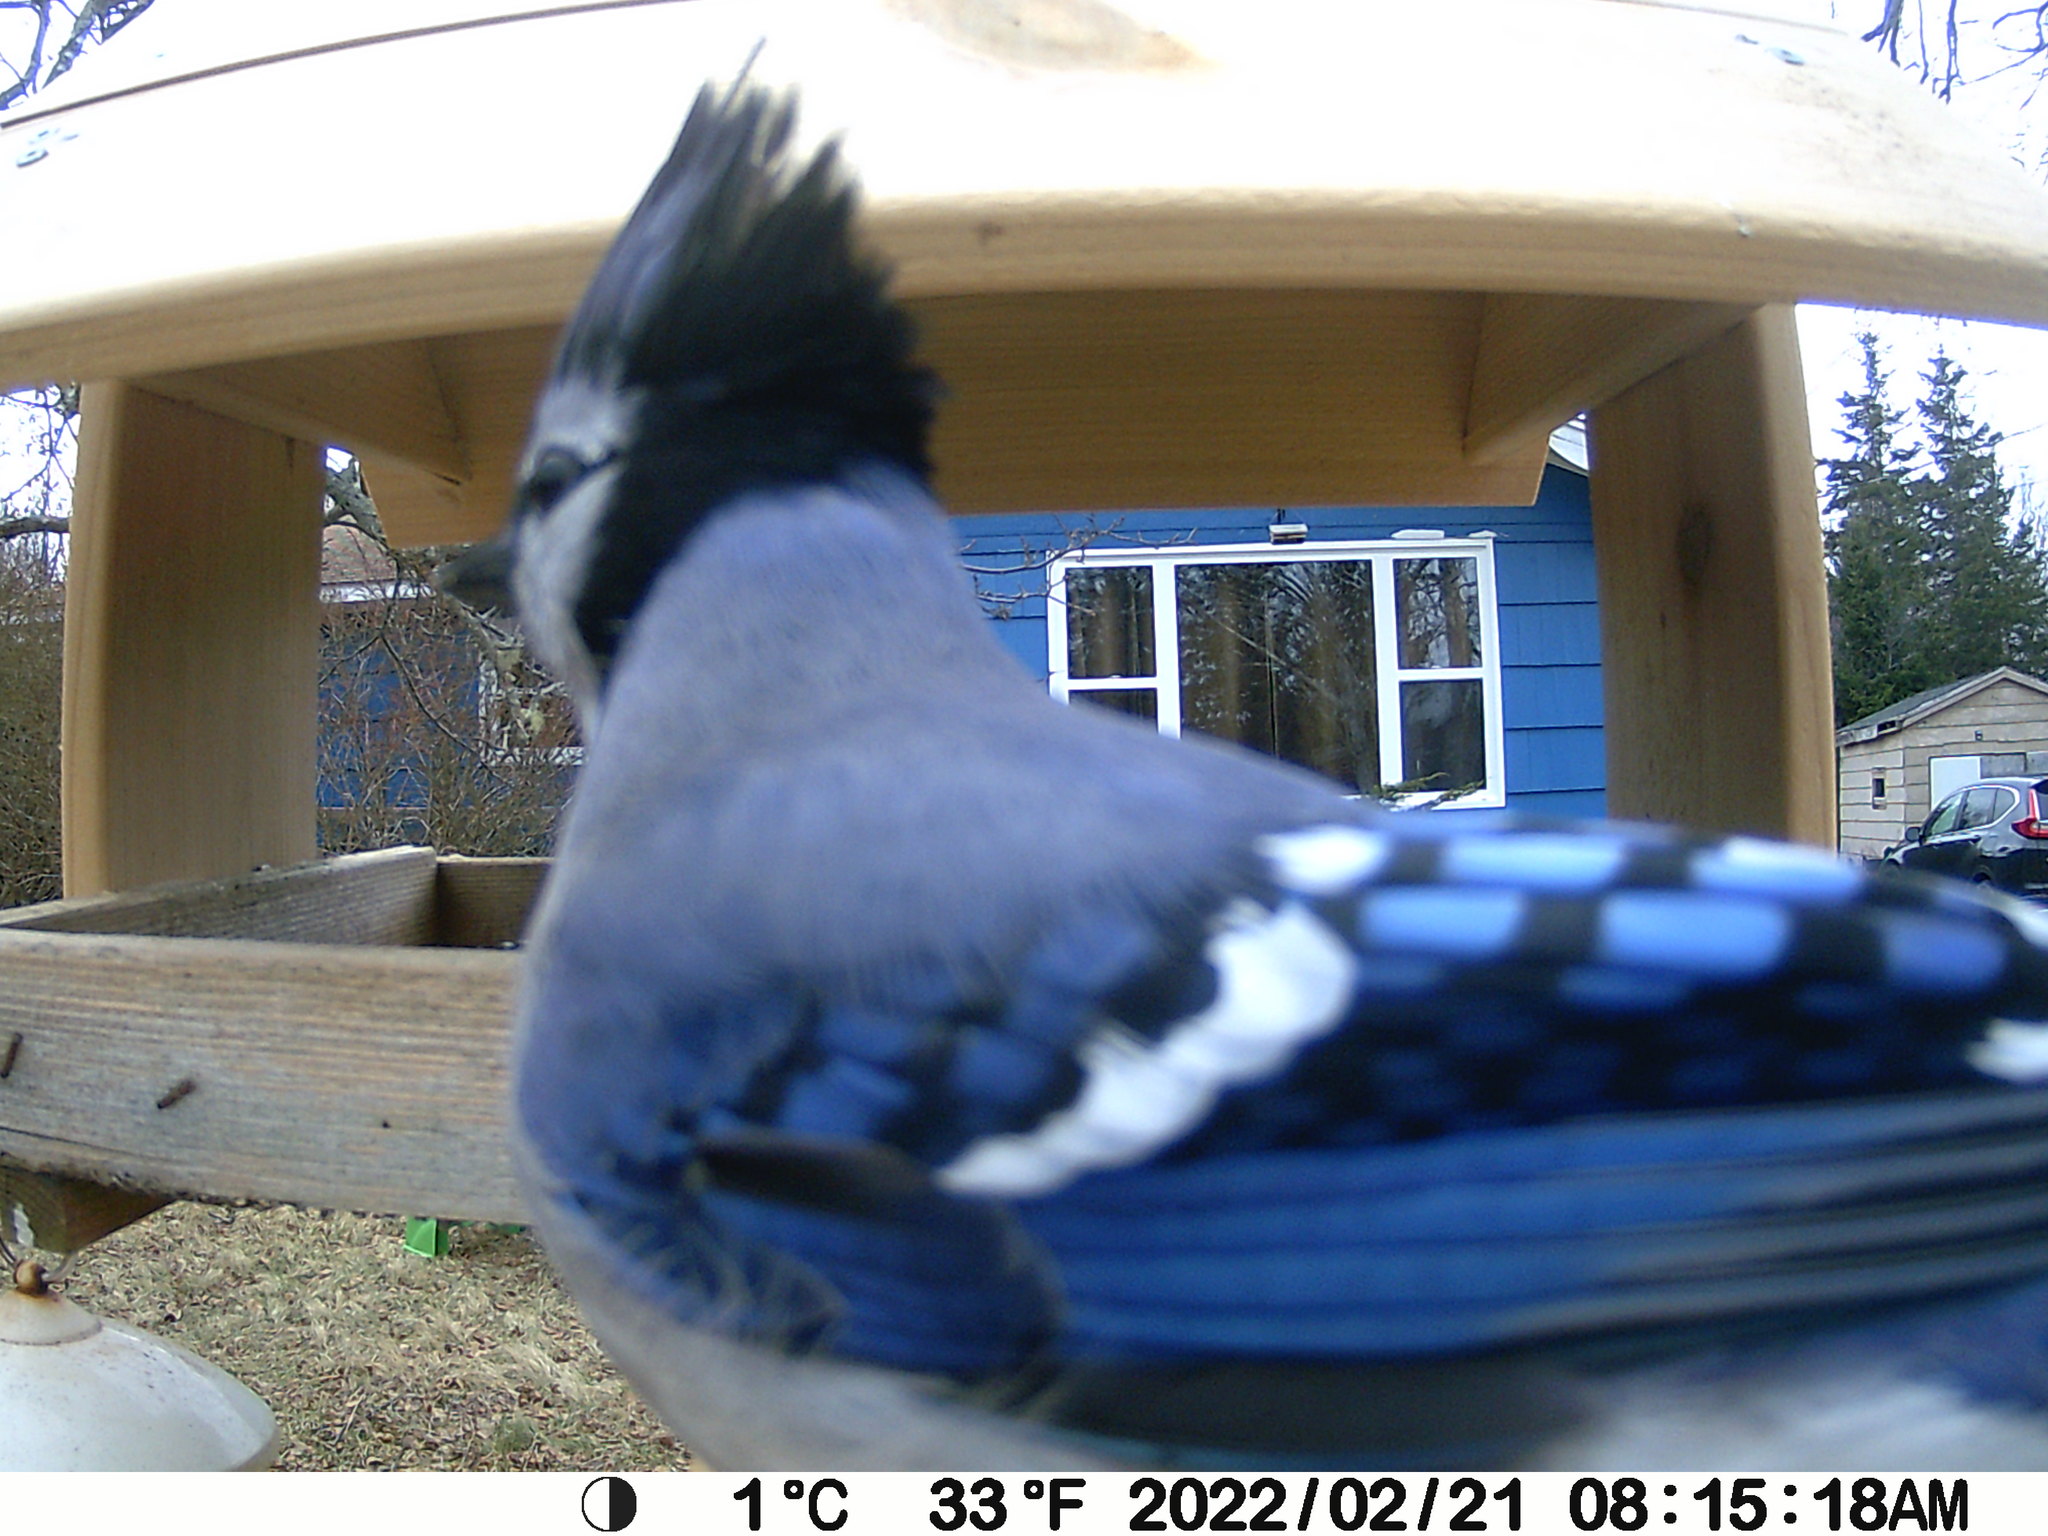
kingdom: Animalia
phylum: Chordata
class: Aves
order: Passeriformes
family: Corvidae
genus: Cyanocitta
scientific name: Cyanocitta cristata
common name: Blue jay
